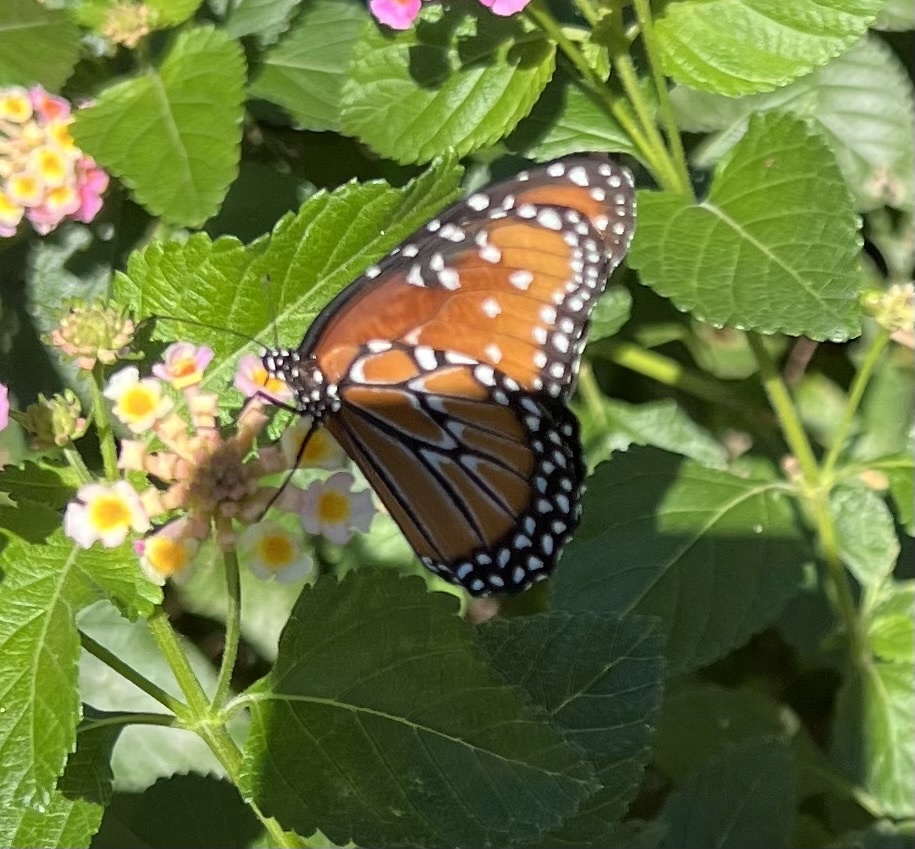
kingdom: Animalia
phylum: Arthropoda
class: Insecta
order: Lepidoptera
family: Nymphalidae
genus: Danaus
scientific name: Danaus gilippus
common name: Queen
